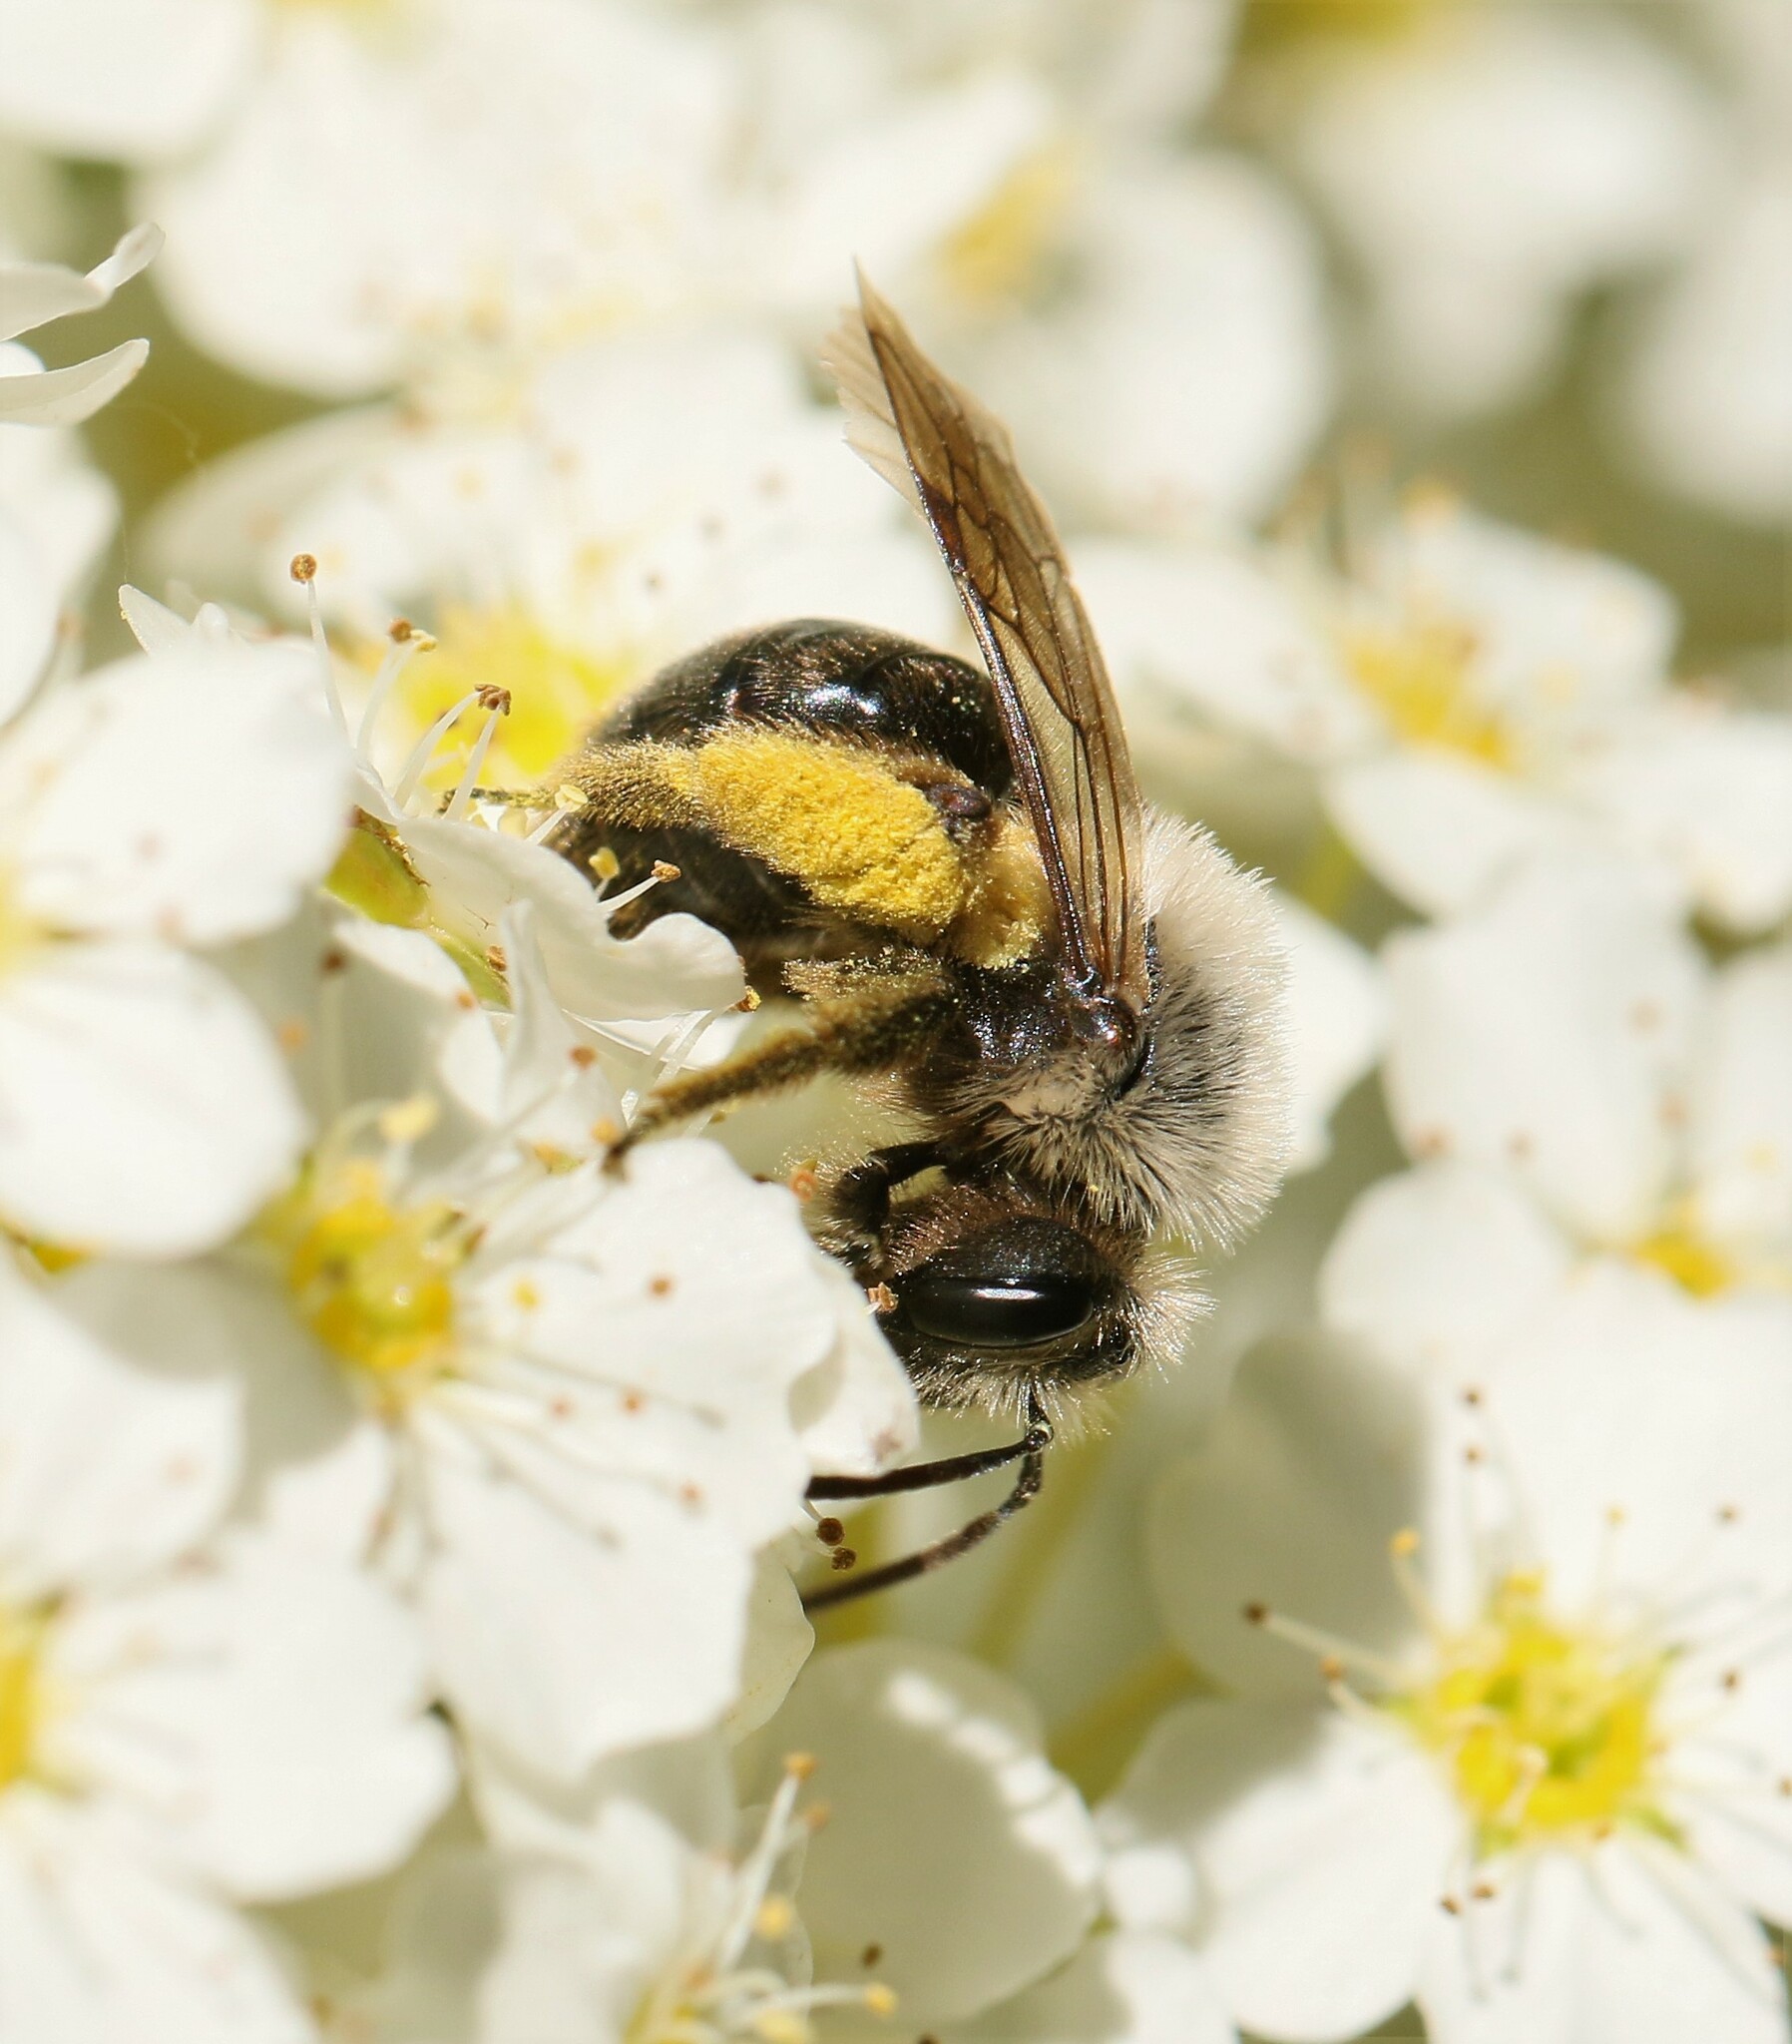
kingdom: Animalia
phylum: Arthropoda
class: Insecta
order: Hymenoptera
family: Andrenidae
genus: Andrena
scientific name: Andrena
